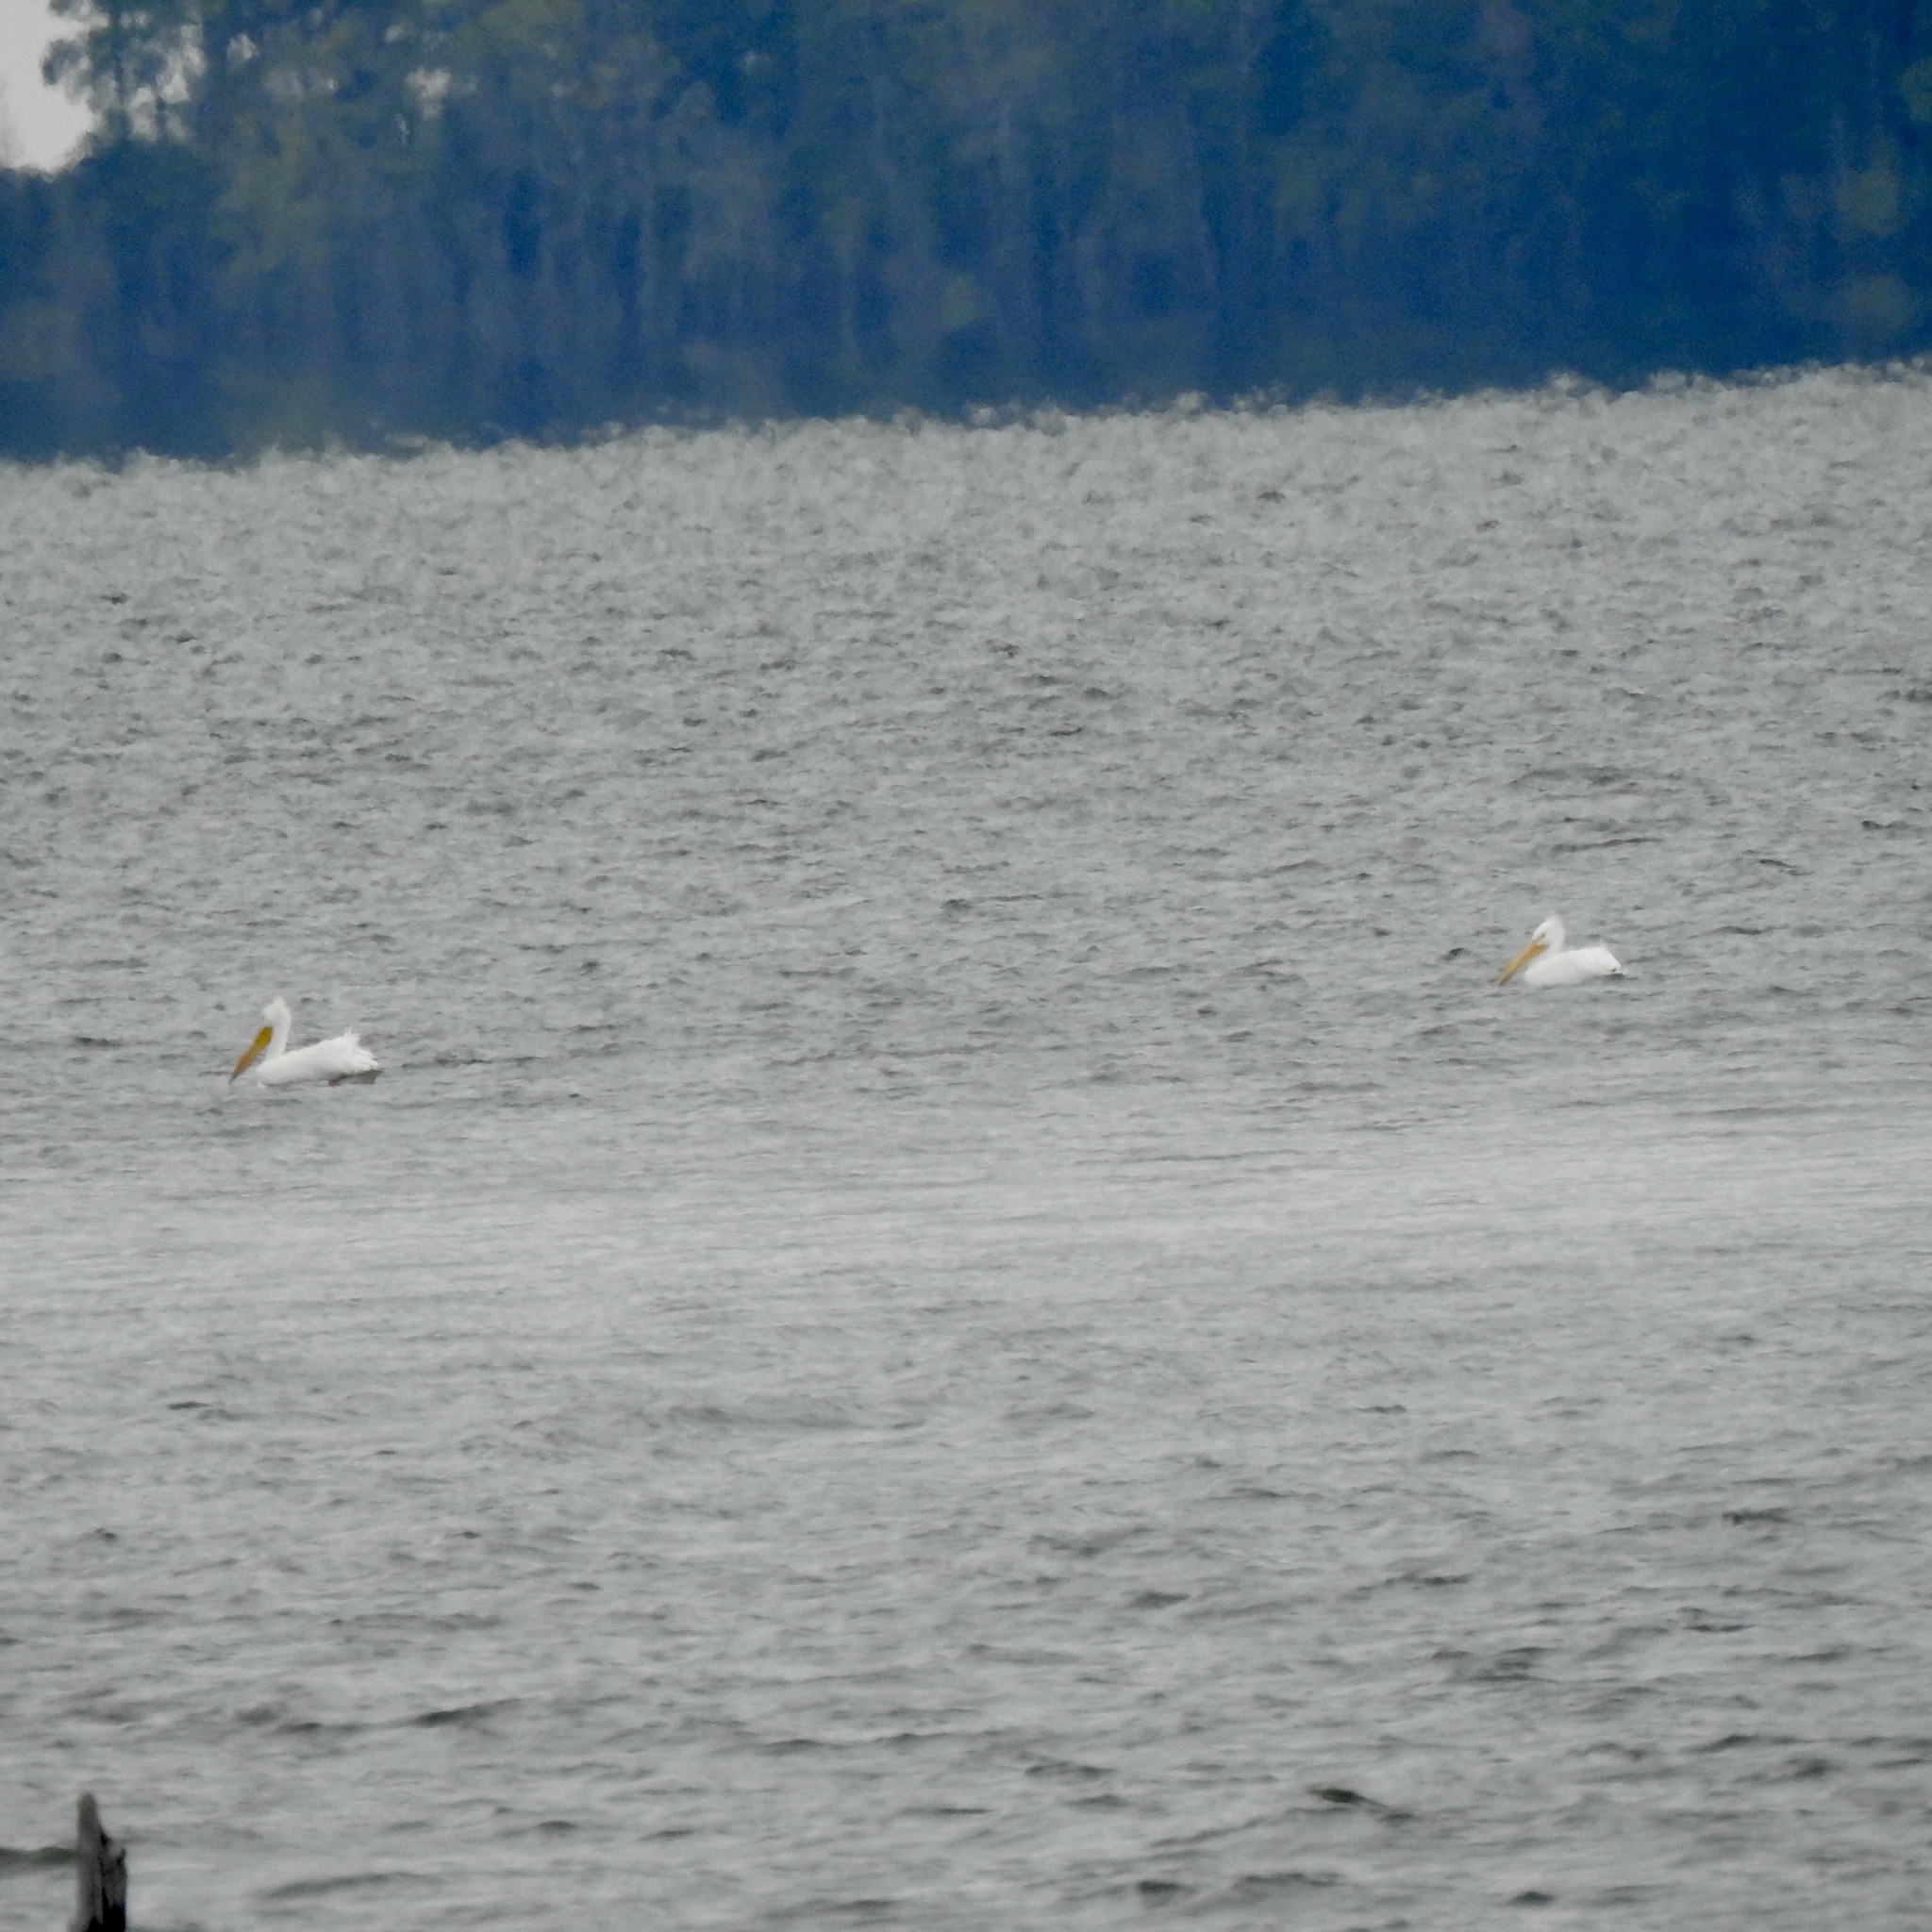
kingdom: Animalia
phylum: Chordata
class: Aves
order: Pelecaniformes
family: Pelecanidae
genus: Pelecanus
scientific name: Pelecanus erythrorhynchos
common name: American white pelican
